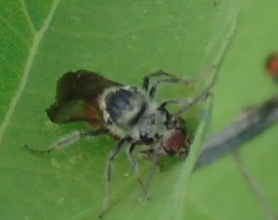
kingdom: Animalia
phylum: Arthropoda
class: Insecta
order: Hymenoptera
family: Mutillidae
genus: Timulla
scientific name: Timulla
